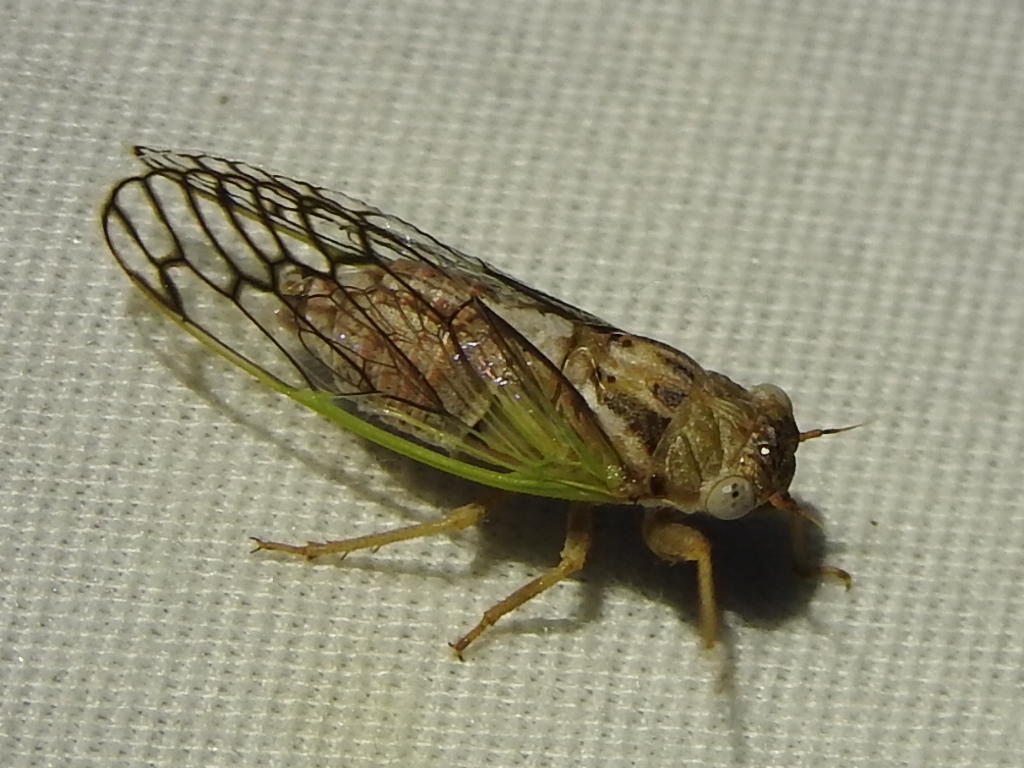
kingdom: Animalia
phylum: Arthropoda
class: Insecta
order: Hemiptera
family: Cicadidae
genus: Beameria
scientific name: Beameria venosa
